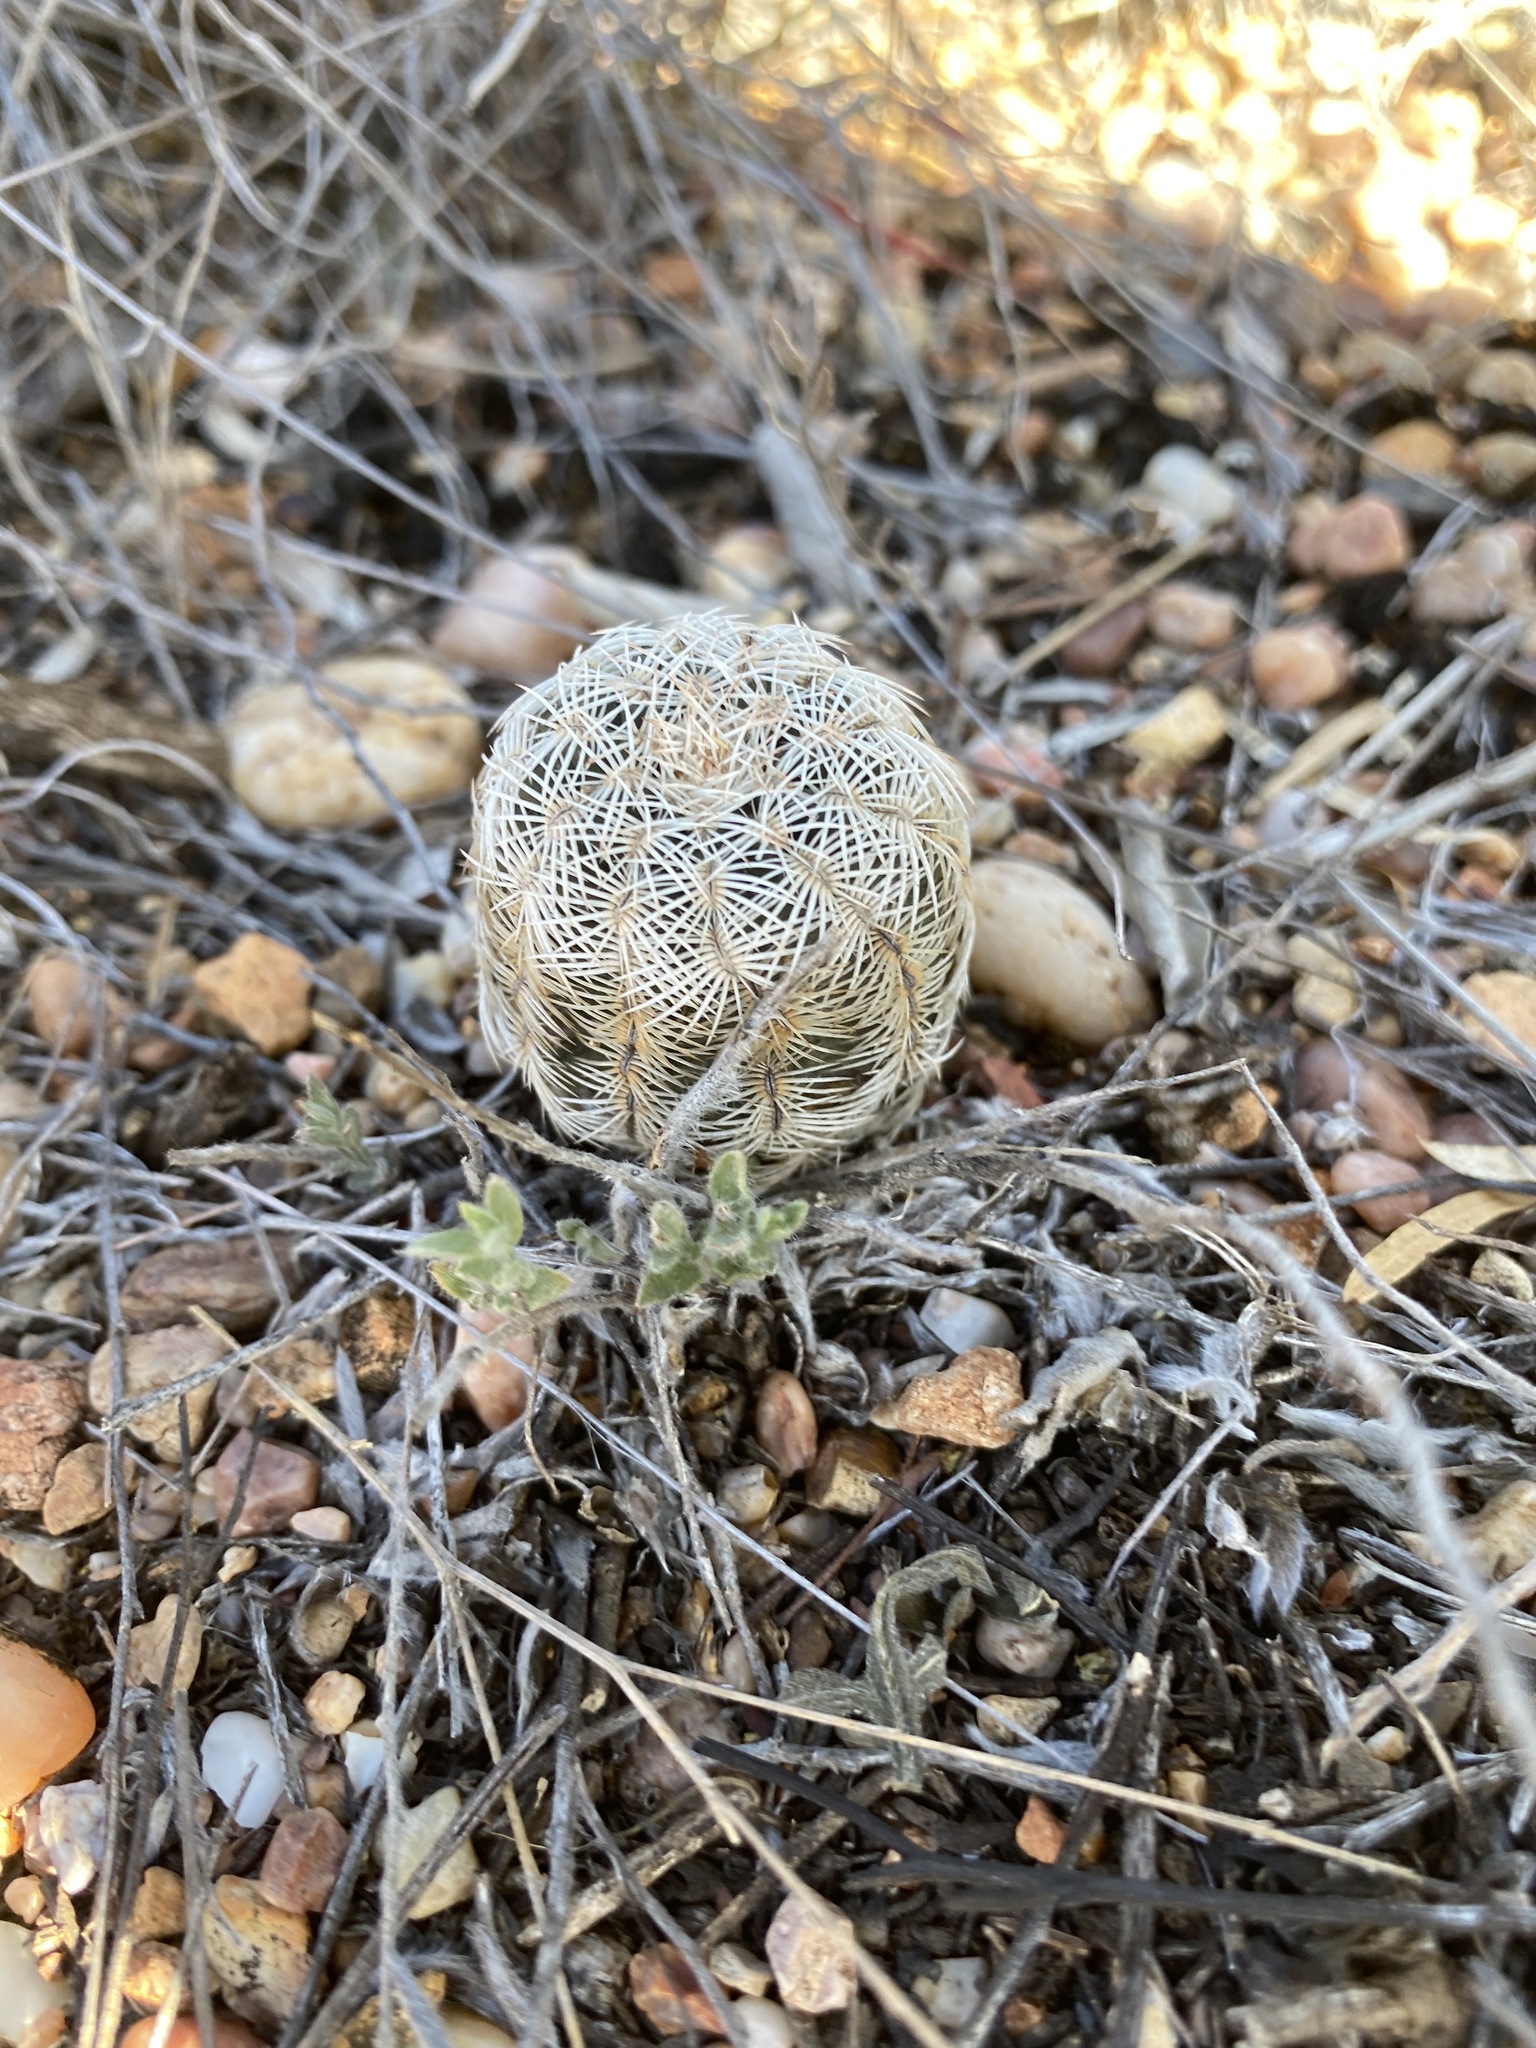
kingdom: Plantae
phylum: Tracheophyta
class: Magnoliopsida
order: Caryophyllales
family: Cactaceae
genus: Echinocereus
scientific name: Echinocereus reichenbachii
